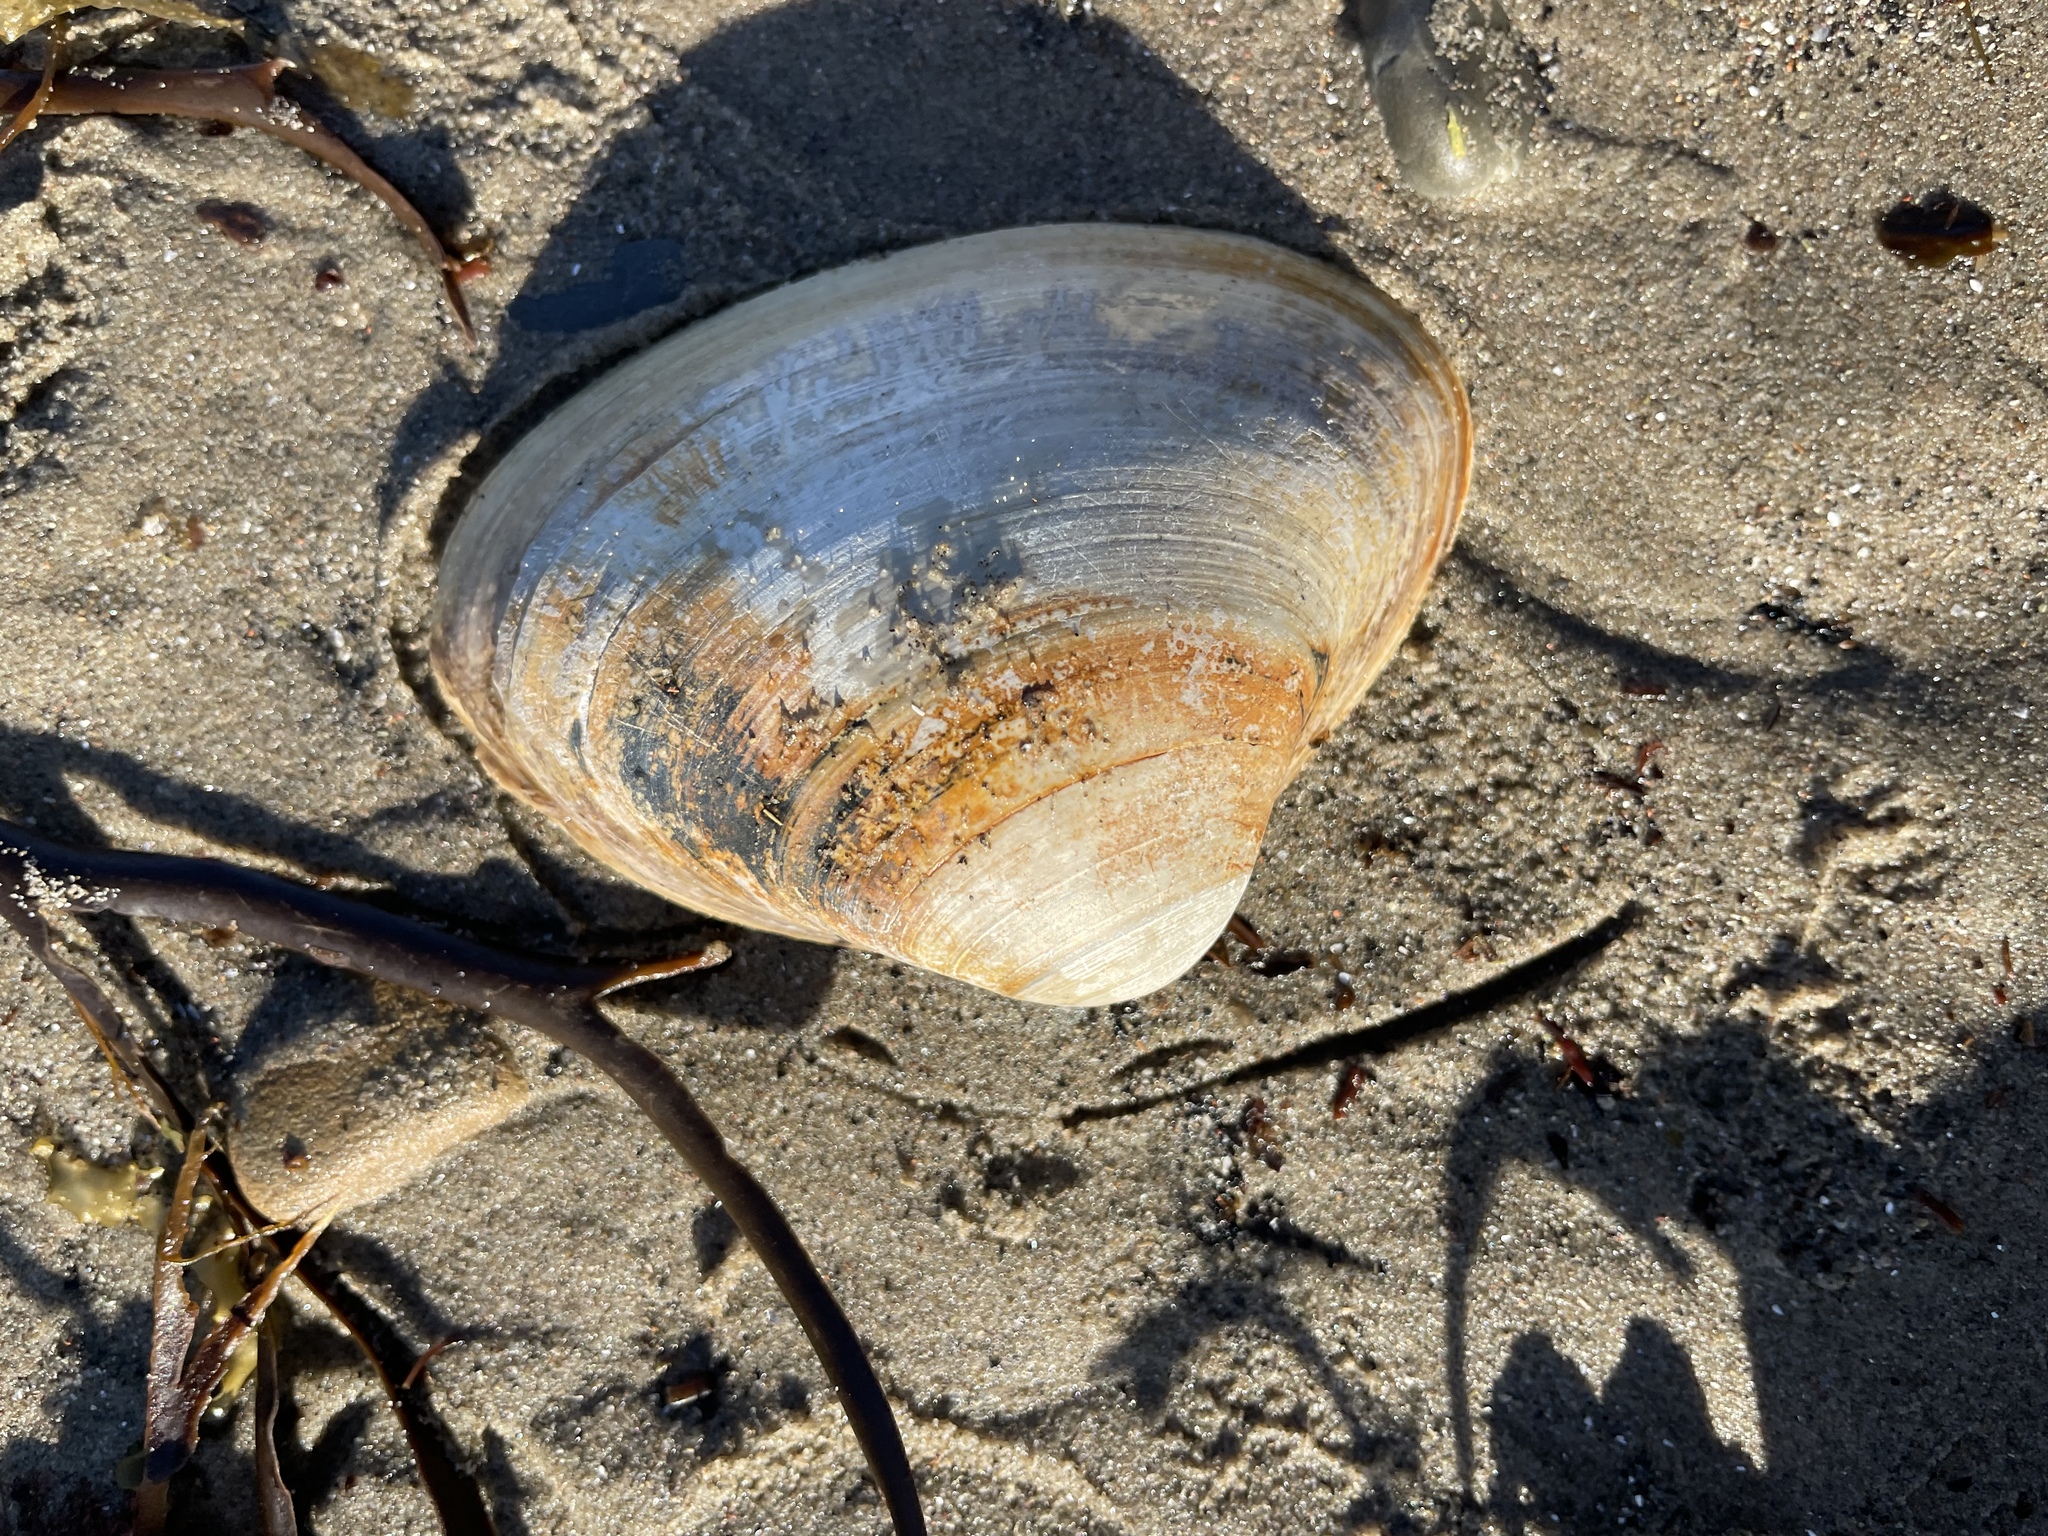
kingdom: Animalia
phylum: Mollusca
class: Bivalvia
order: Venerida
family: Mactridae
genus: Spisula
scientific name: Spisula solidissima
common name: Atlantic surf clam
